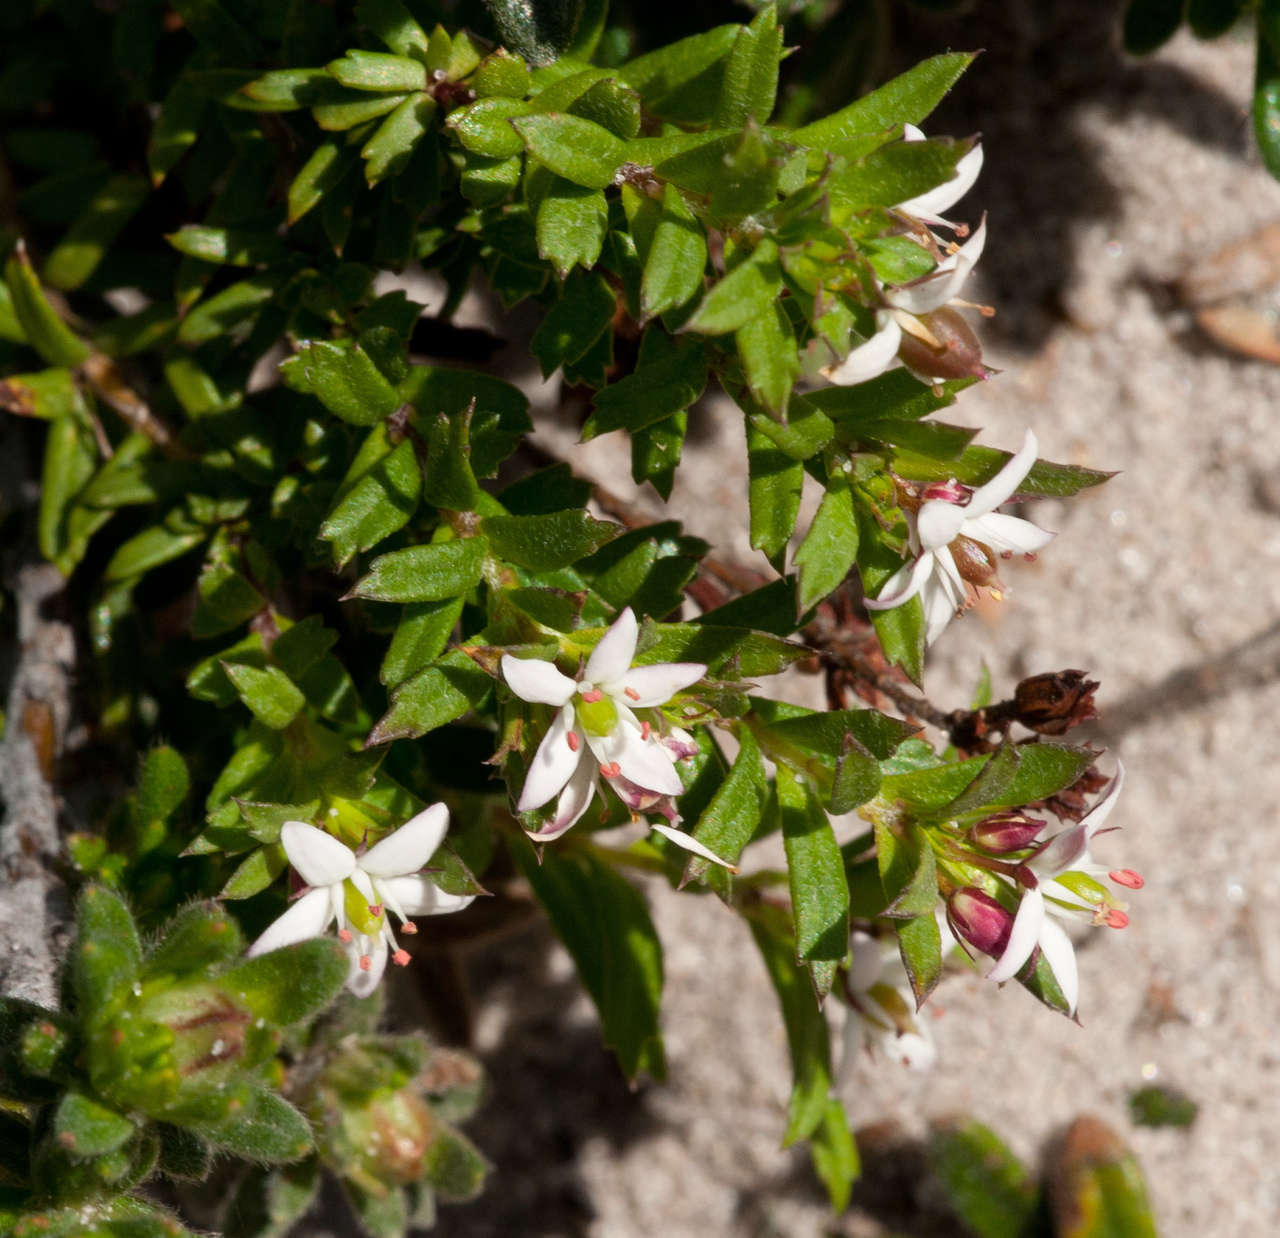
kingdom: Plantae
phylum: Tracheophyta
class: Magnoliopsida
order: Apiales
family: Pittosporaceae
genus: Rhytidosporum
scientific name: Rhytidosporum procumbens
